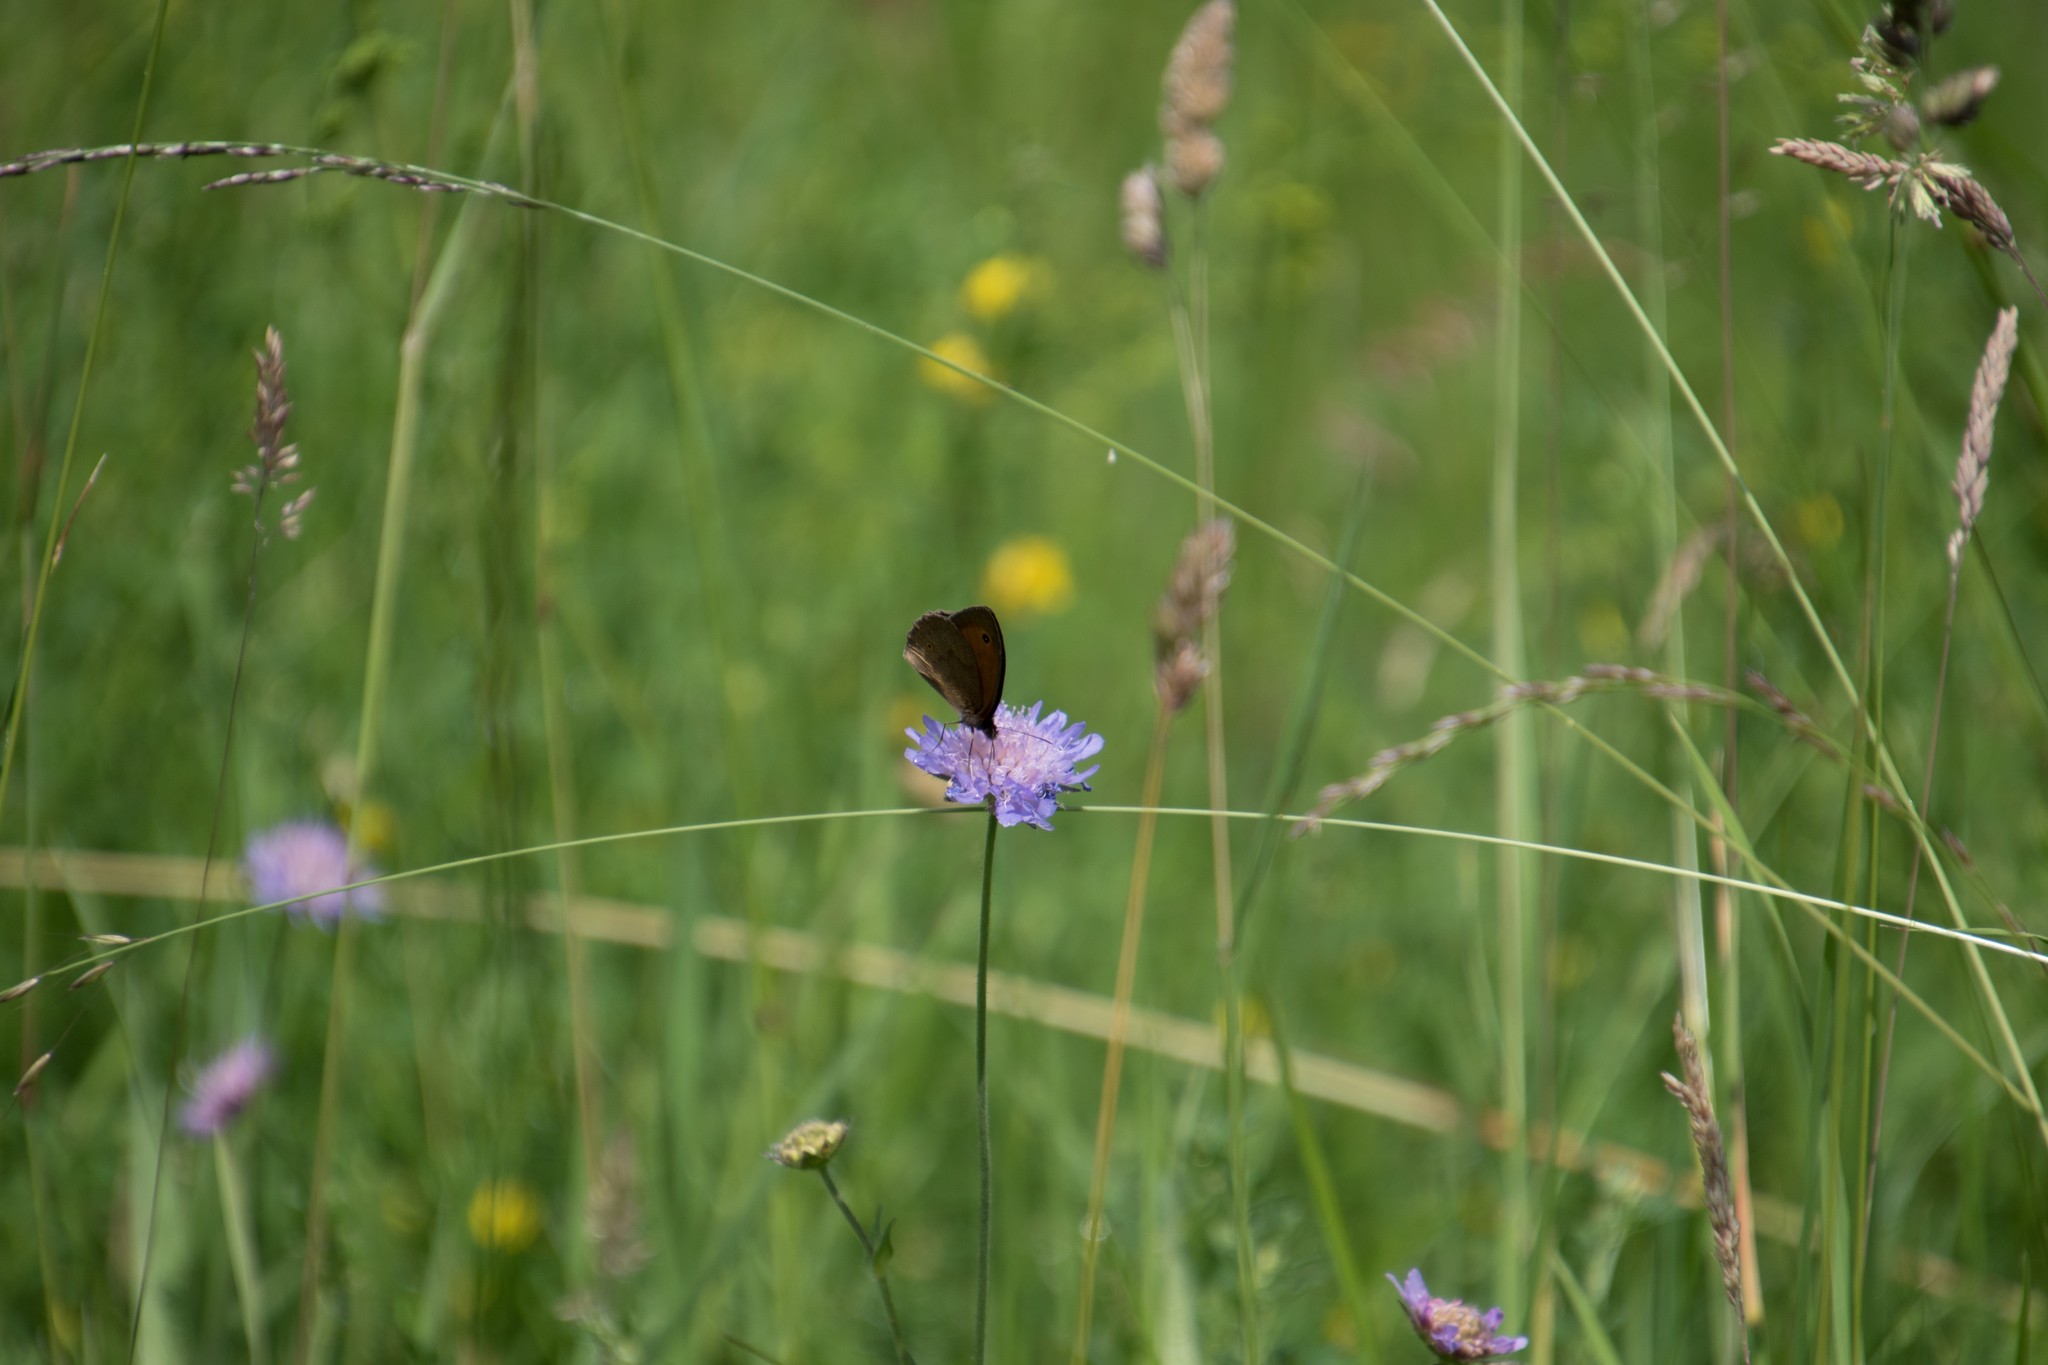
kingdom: Animalia
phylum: Arthropoda
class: Insecta
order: Lepidoptera
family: Nymphalidae
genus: Maniola
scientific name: Maniola jurtina
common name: Meadow brown
